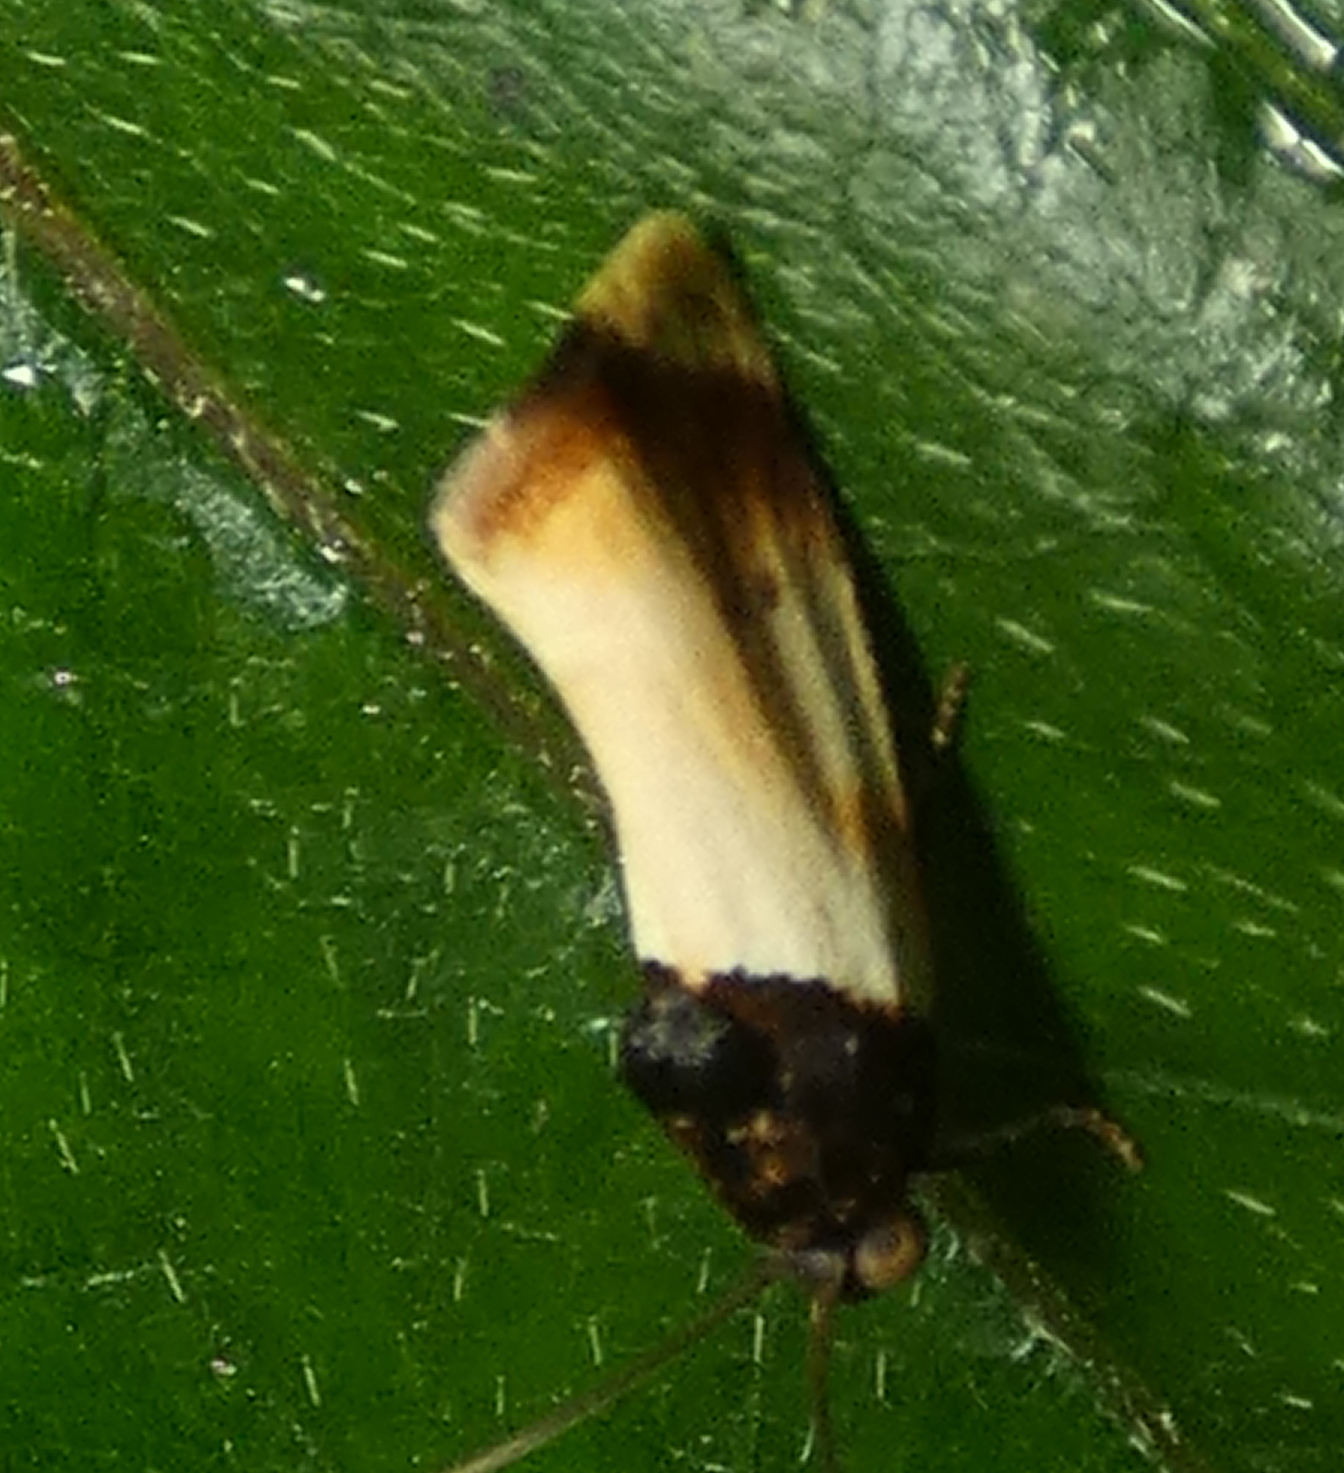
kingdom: Animalia
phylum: Arthropoda
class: Insecta
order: Lepidoptera
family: Noctuidae
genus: Spragueia
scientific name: Spragueia apicalis
